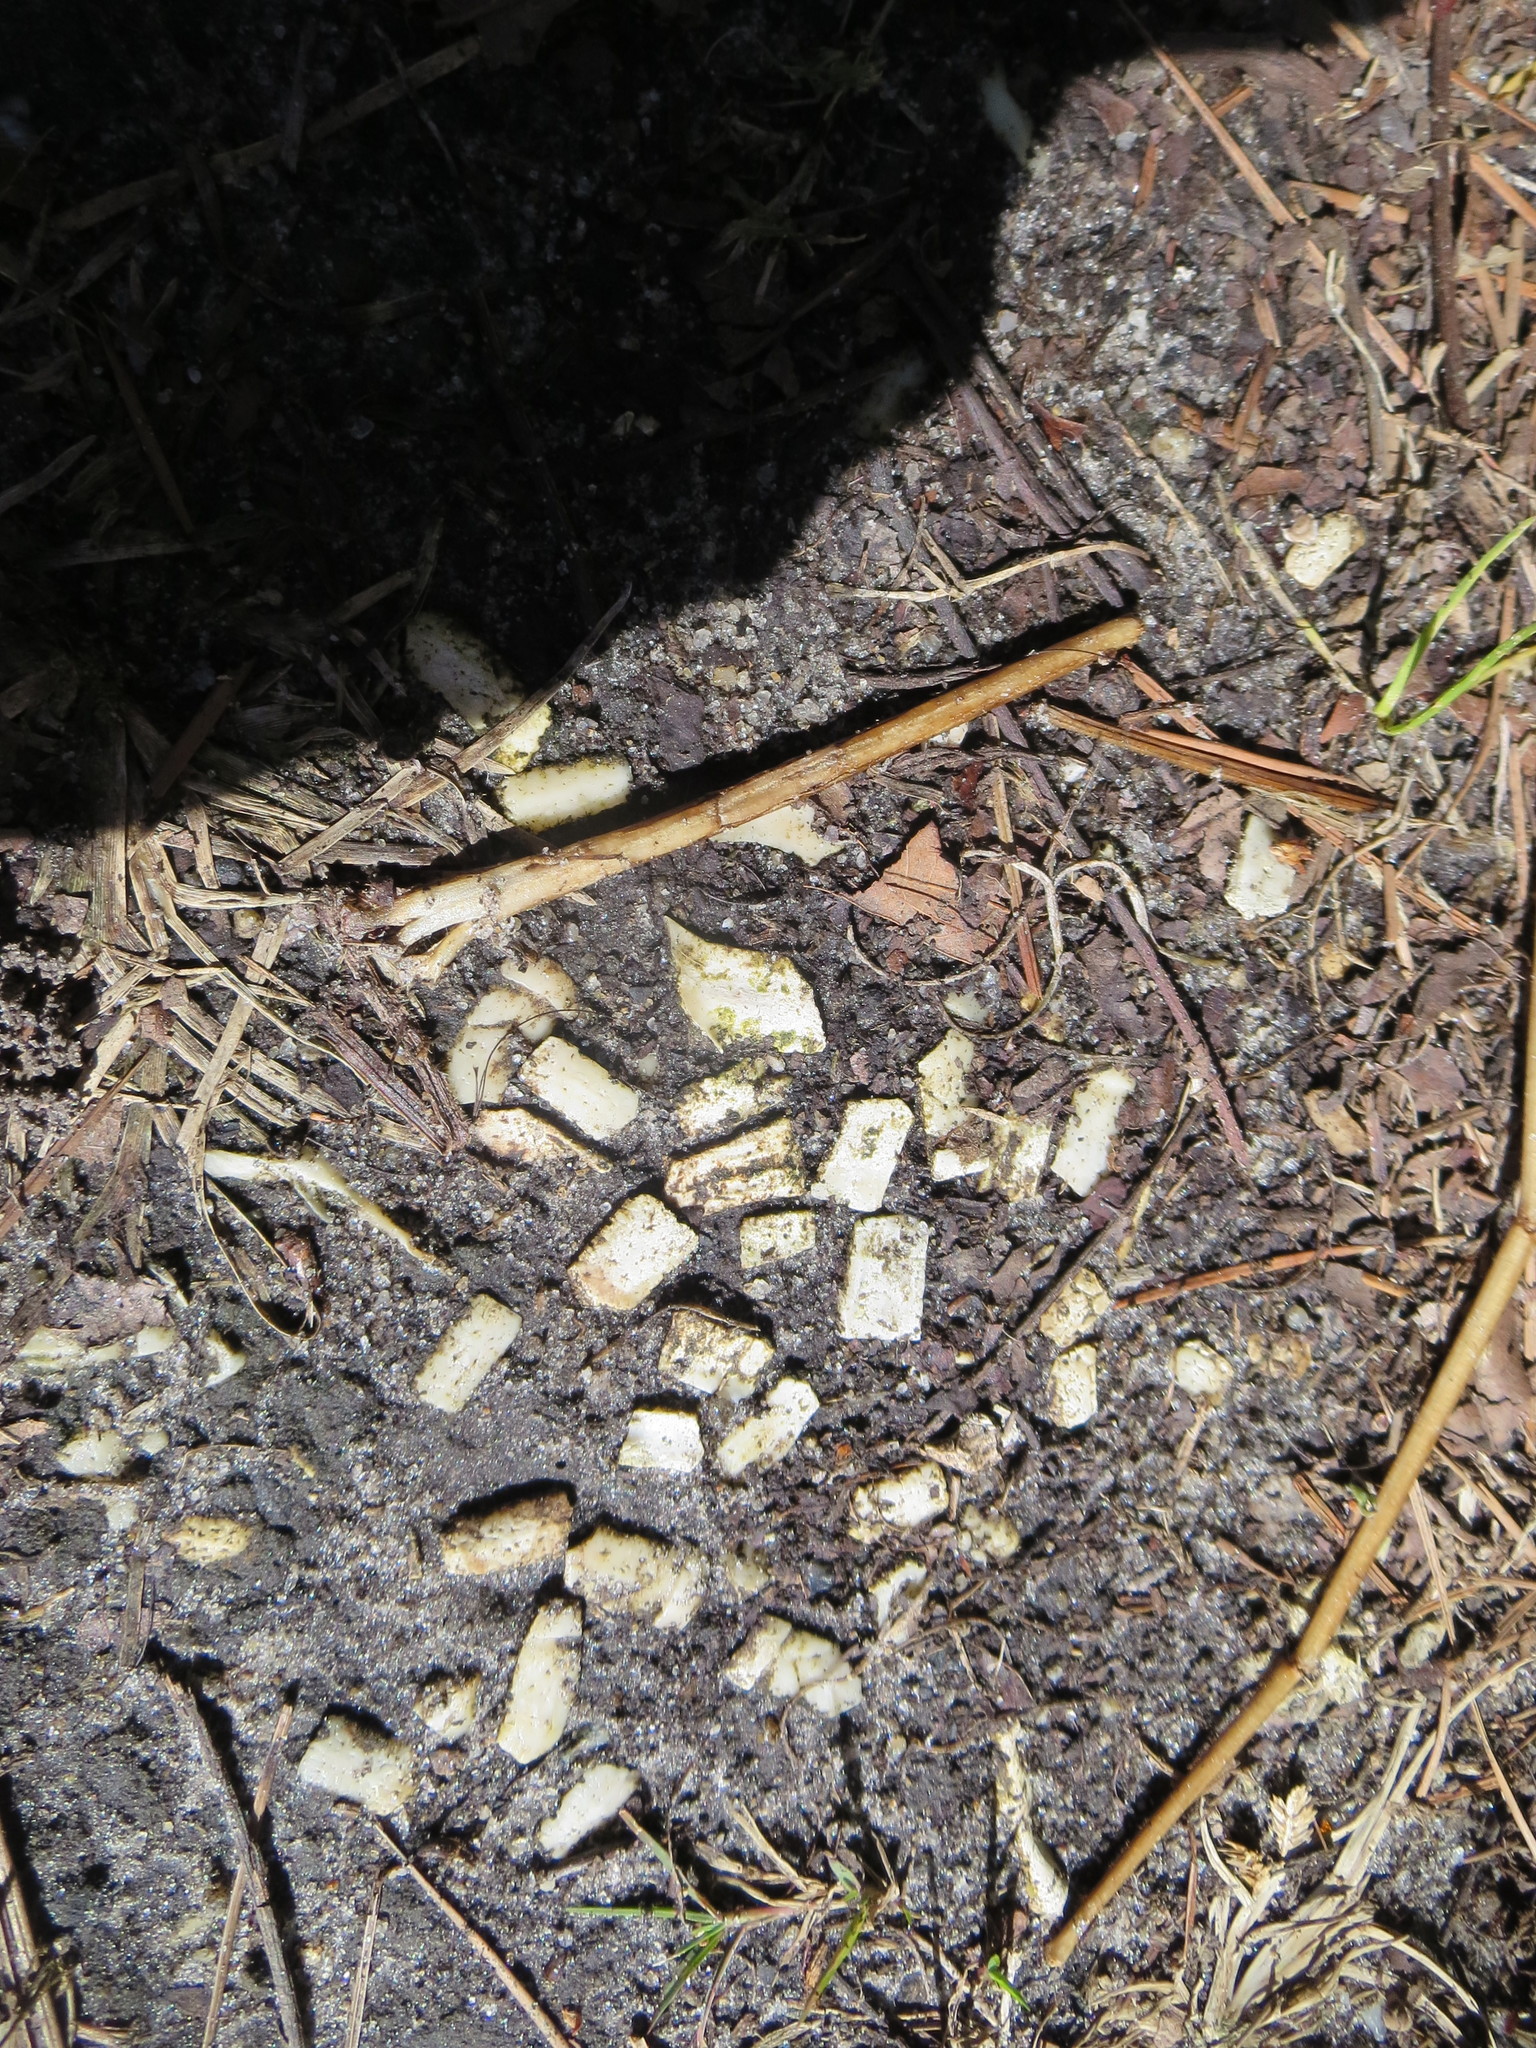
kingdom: Animalia
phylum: Chordata
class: Mammalia
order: Cingulata
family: Dasypodidae
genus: Dasypus
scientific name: Dasypus novemcinctus
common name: Nine-banded armadillo
